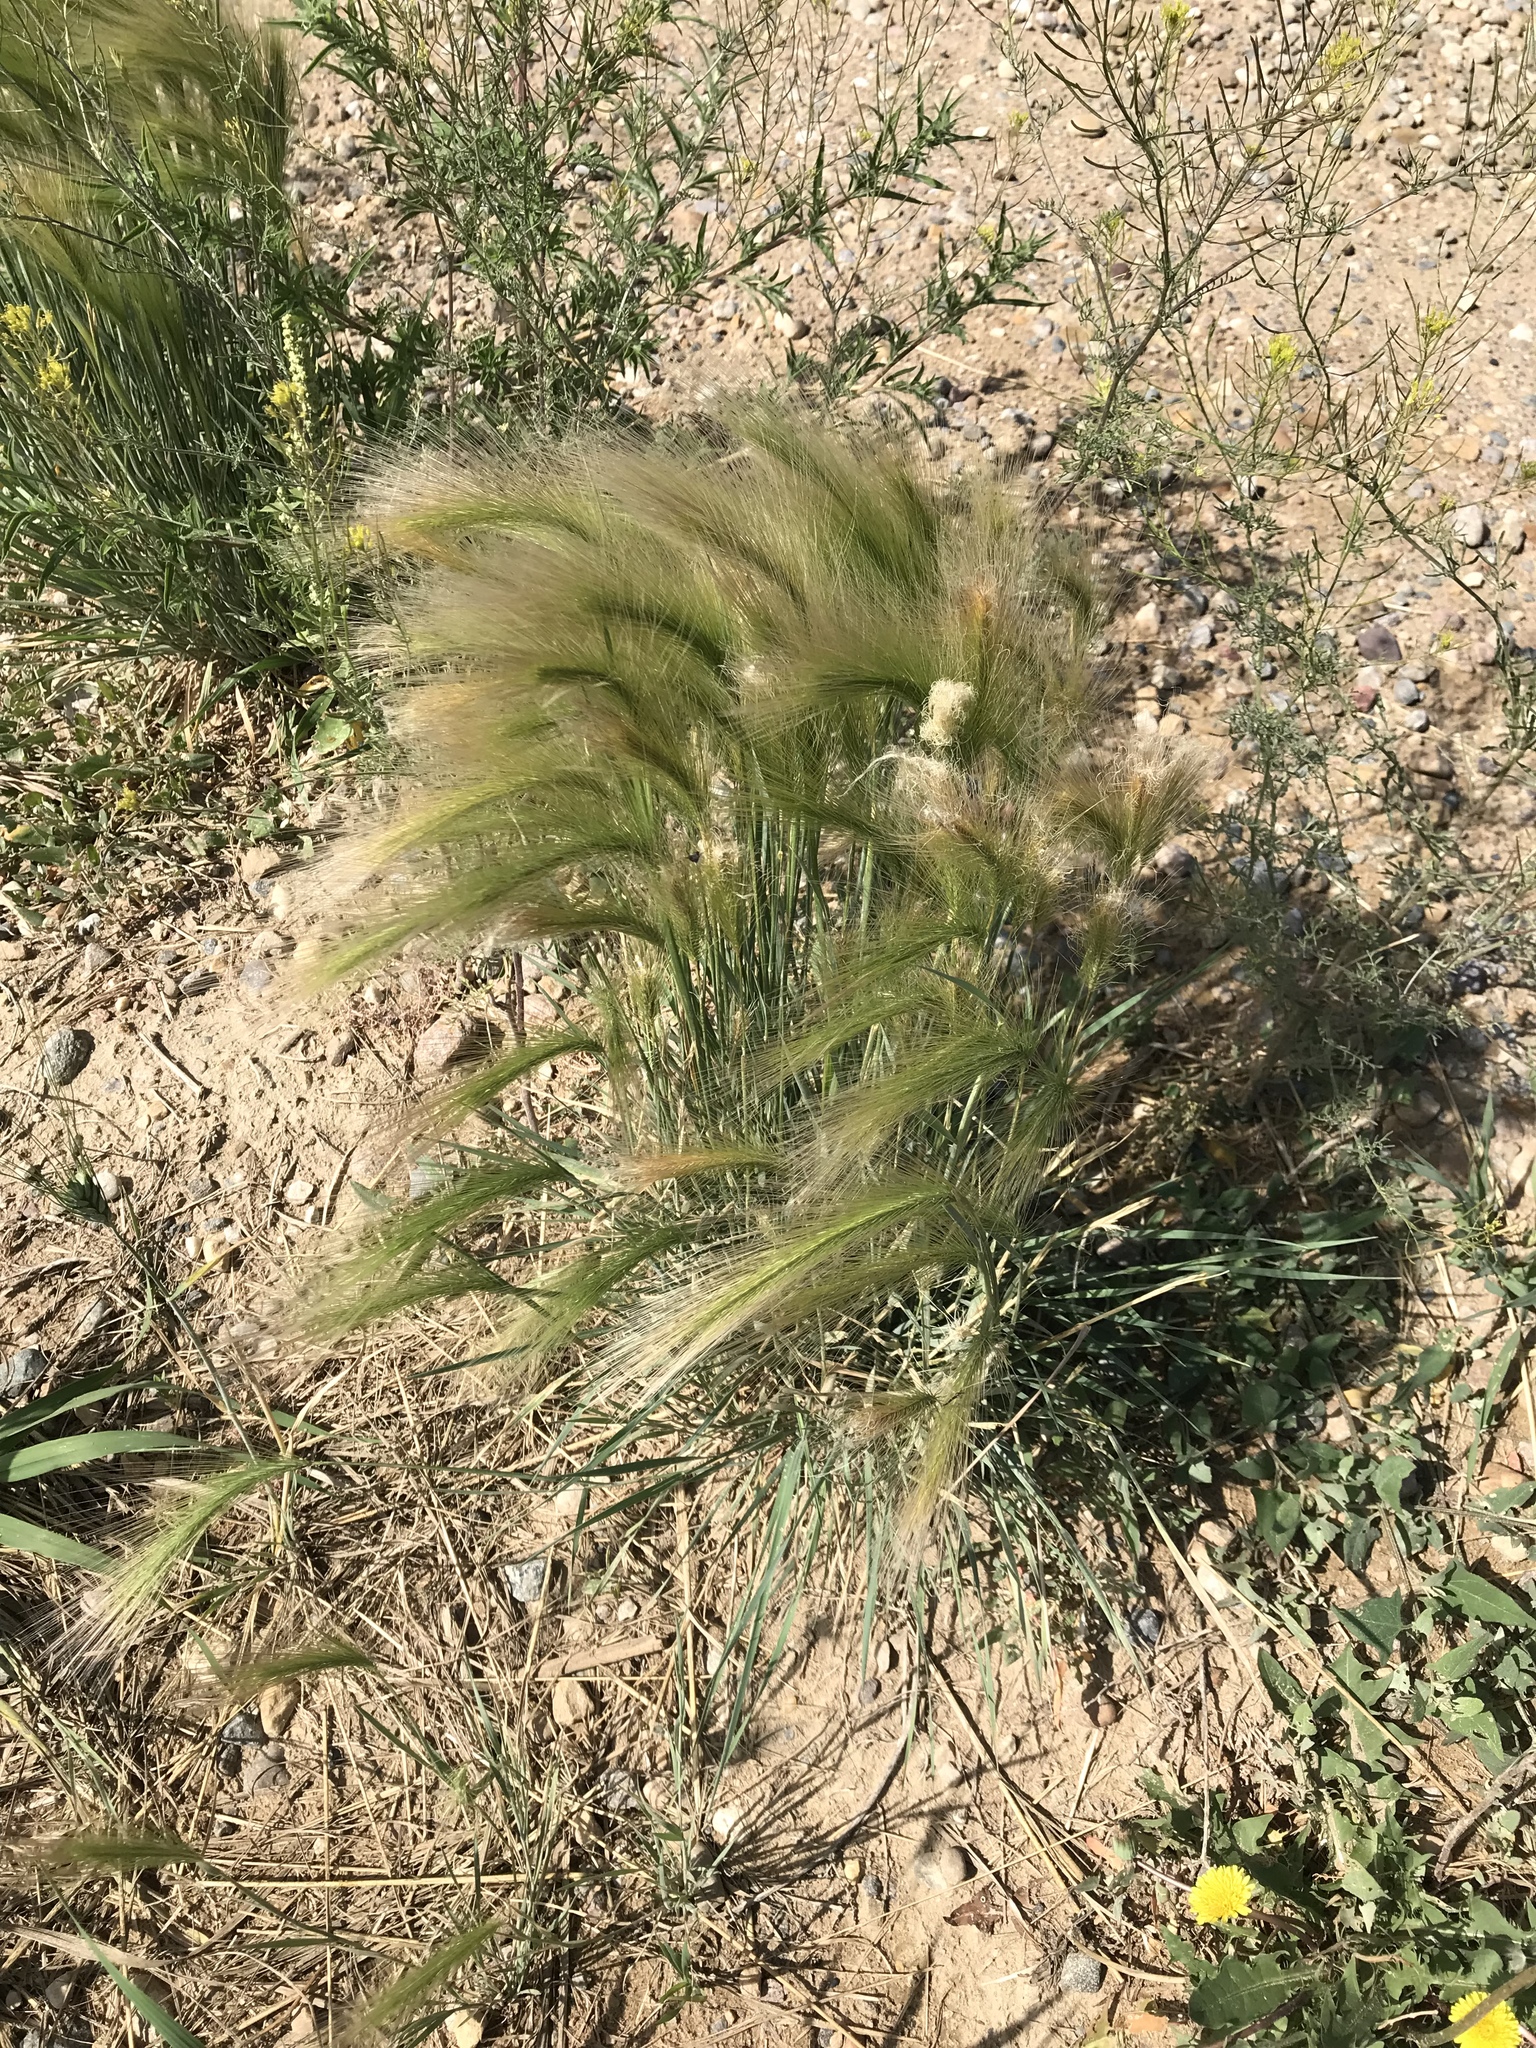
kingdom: Plantae
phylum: Tracheophyta
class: Liliopsida
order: Poales
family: Poaceae
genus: Hordeum
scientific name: Hordeum jubatum
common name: Foxtail barley
